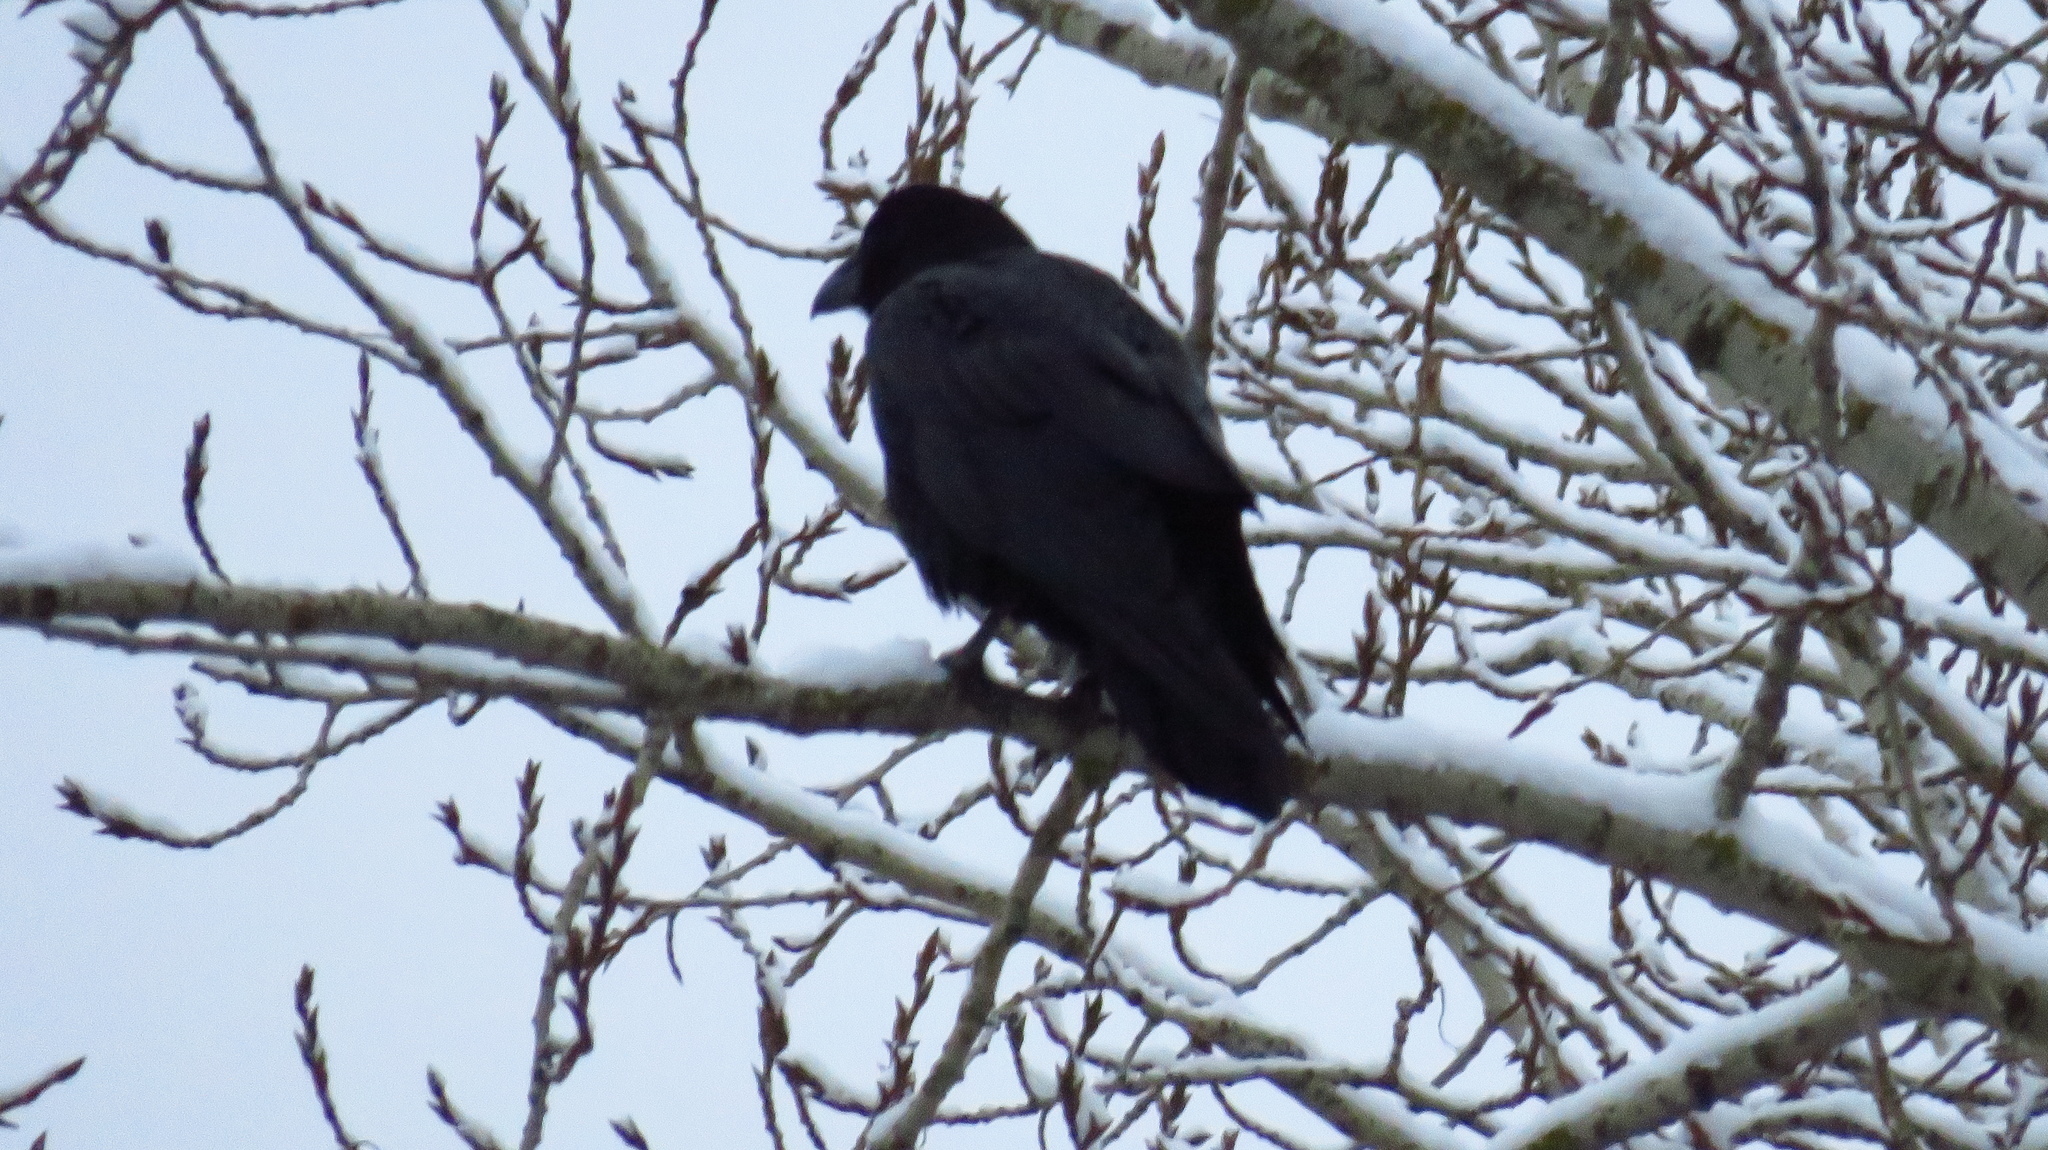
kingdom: Animalia
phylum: Chordata
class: Aves
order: Passeriformes
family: Corvidae
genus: Corvus
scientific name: Corvus corax
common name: Common raven
